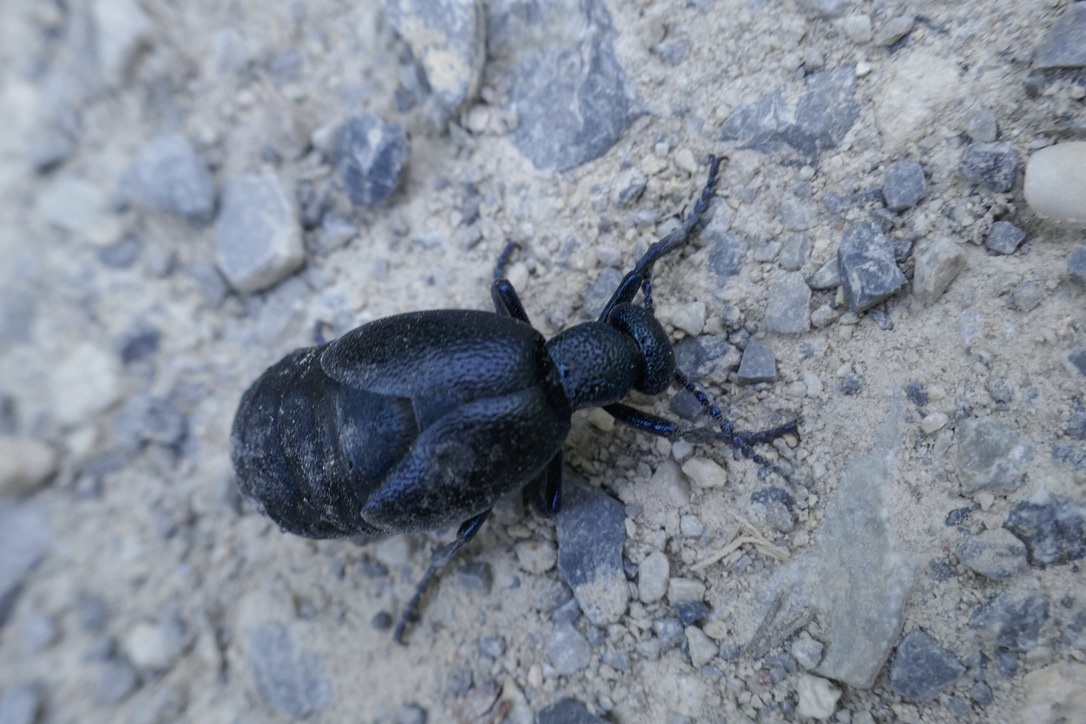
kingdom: Animalia
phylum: Arthropoda
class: Insecta
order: Coleoptera
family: Meloidae
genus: Meloe
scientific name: Meloe proscarabaeus
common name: Black oil-beetle
